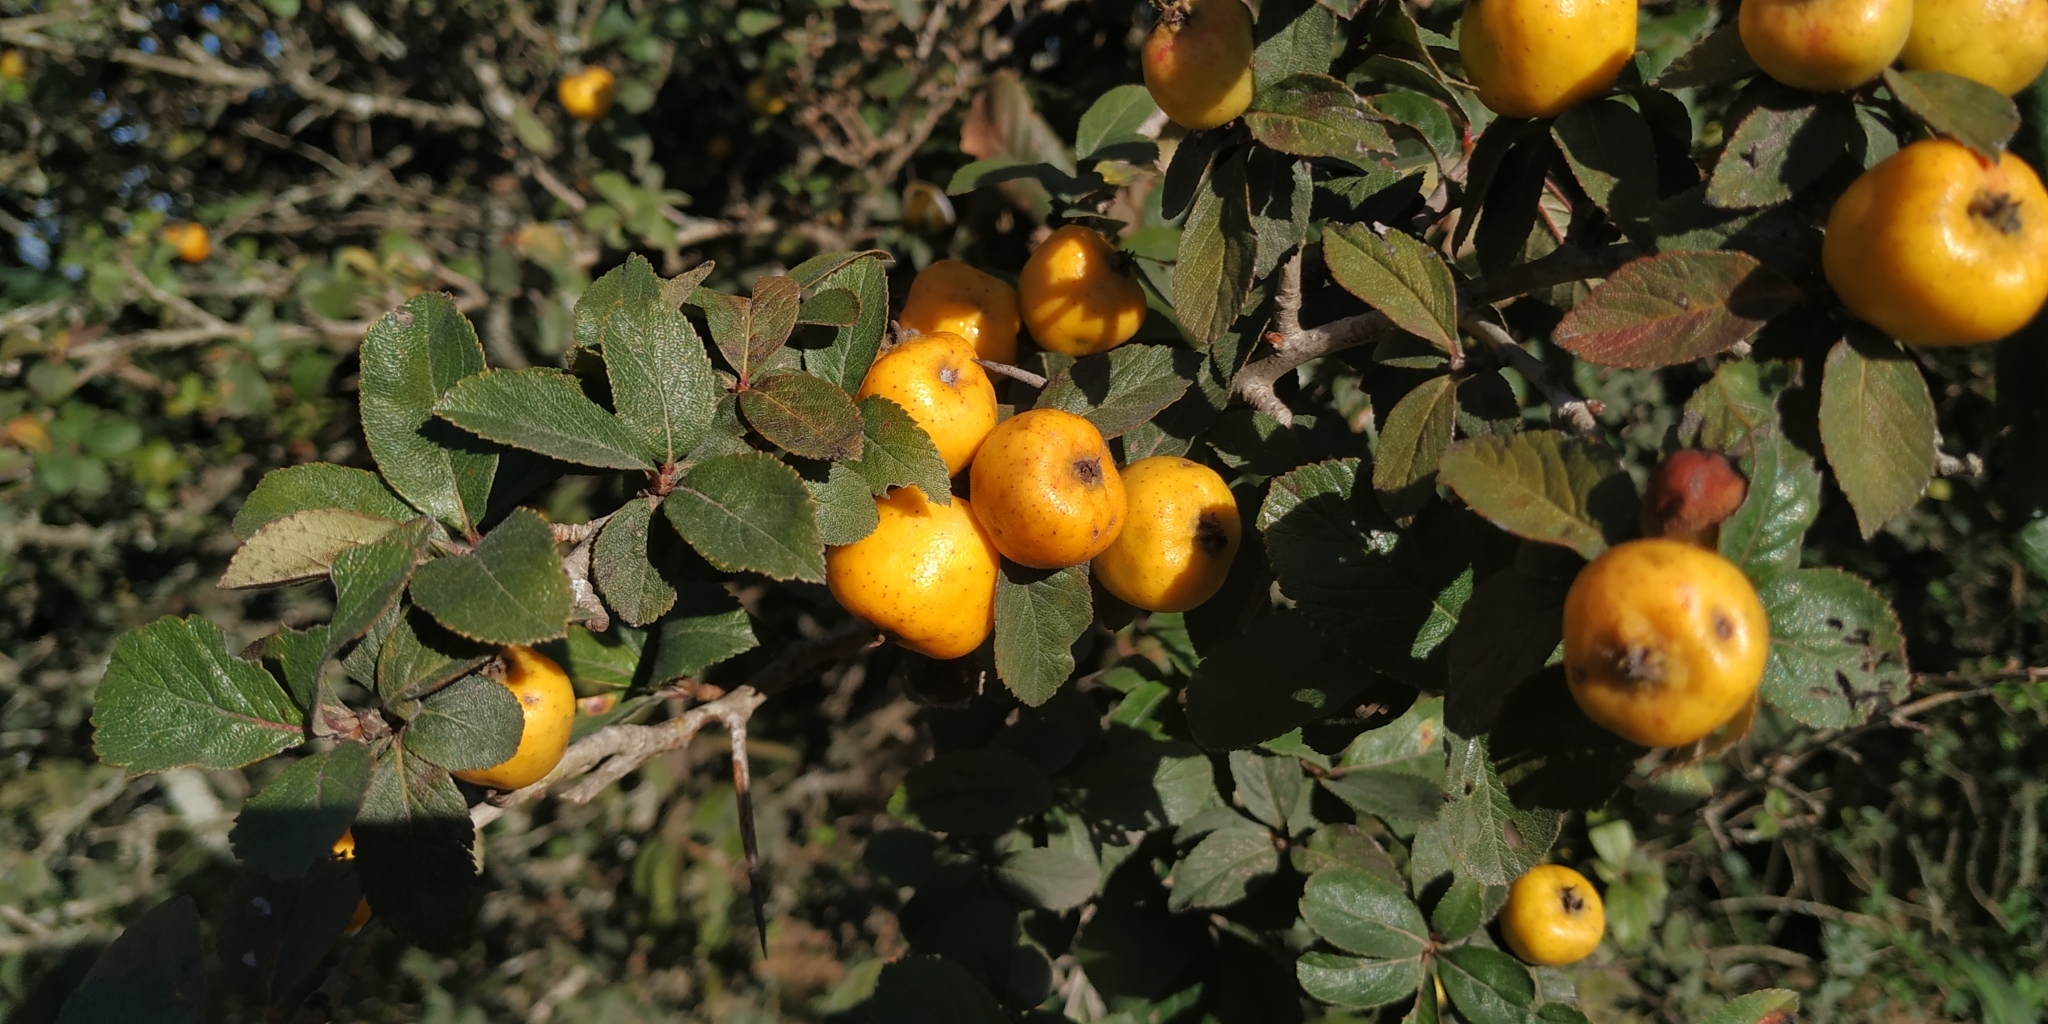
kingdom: Plantae
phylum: Tracheophyta
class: Magnoliopsida
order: Rosales
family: Rosaceae
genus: Crataegus
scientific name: Crataegus mexicana
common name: Mexican hawthorn
